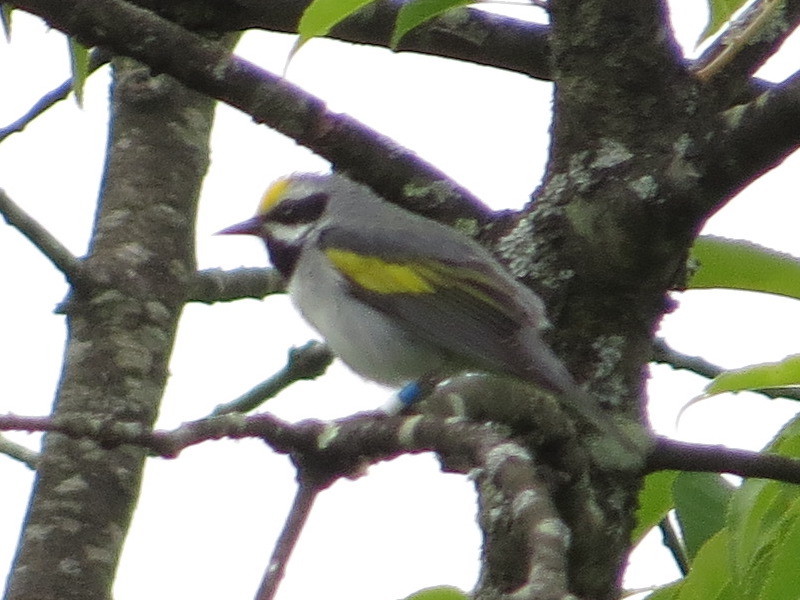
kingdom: Animalia
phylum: Chordata
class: Aves
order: Passeriformes
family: Parulidae
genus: Vermivora
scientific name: Vermivora chrysoptera
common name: Golden-winged warbler
